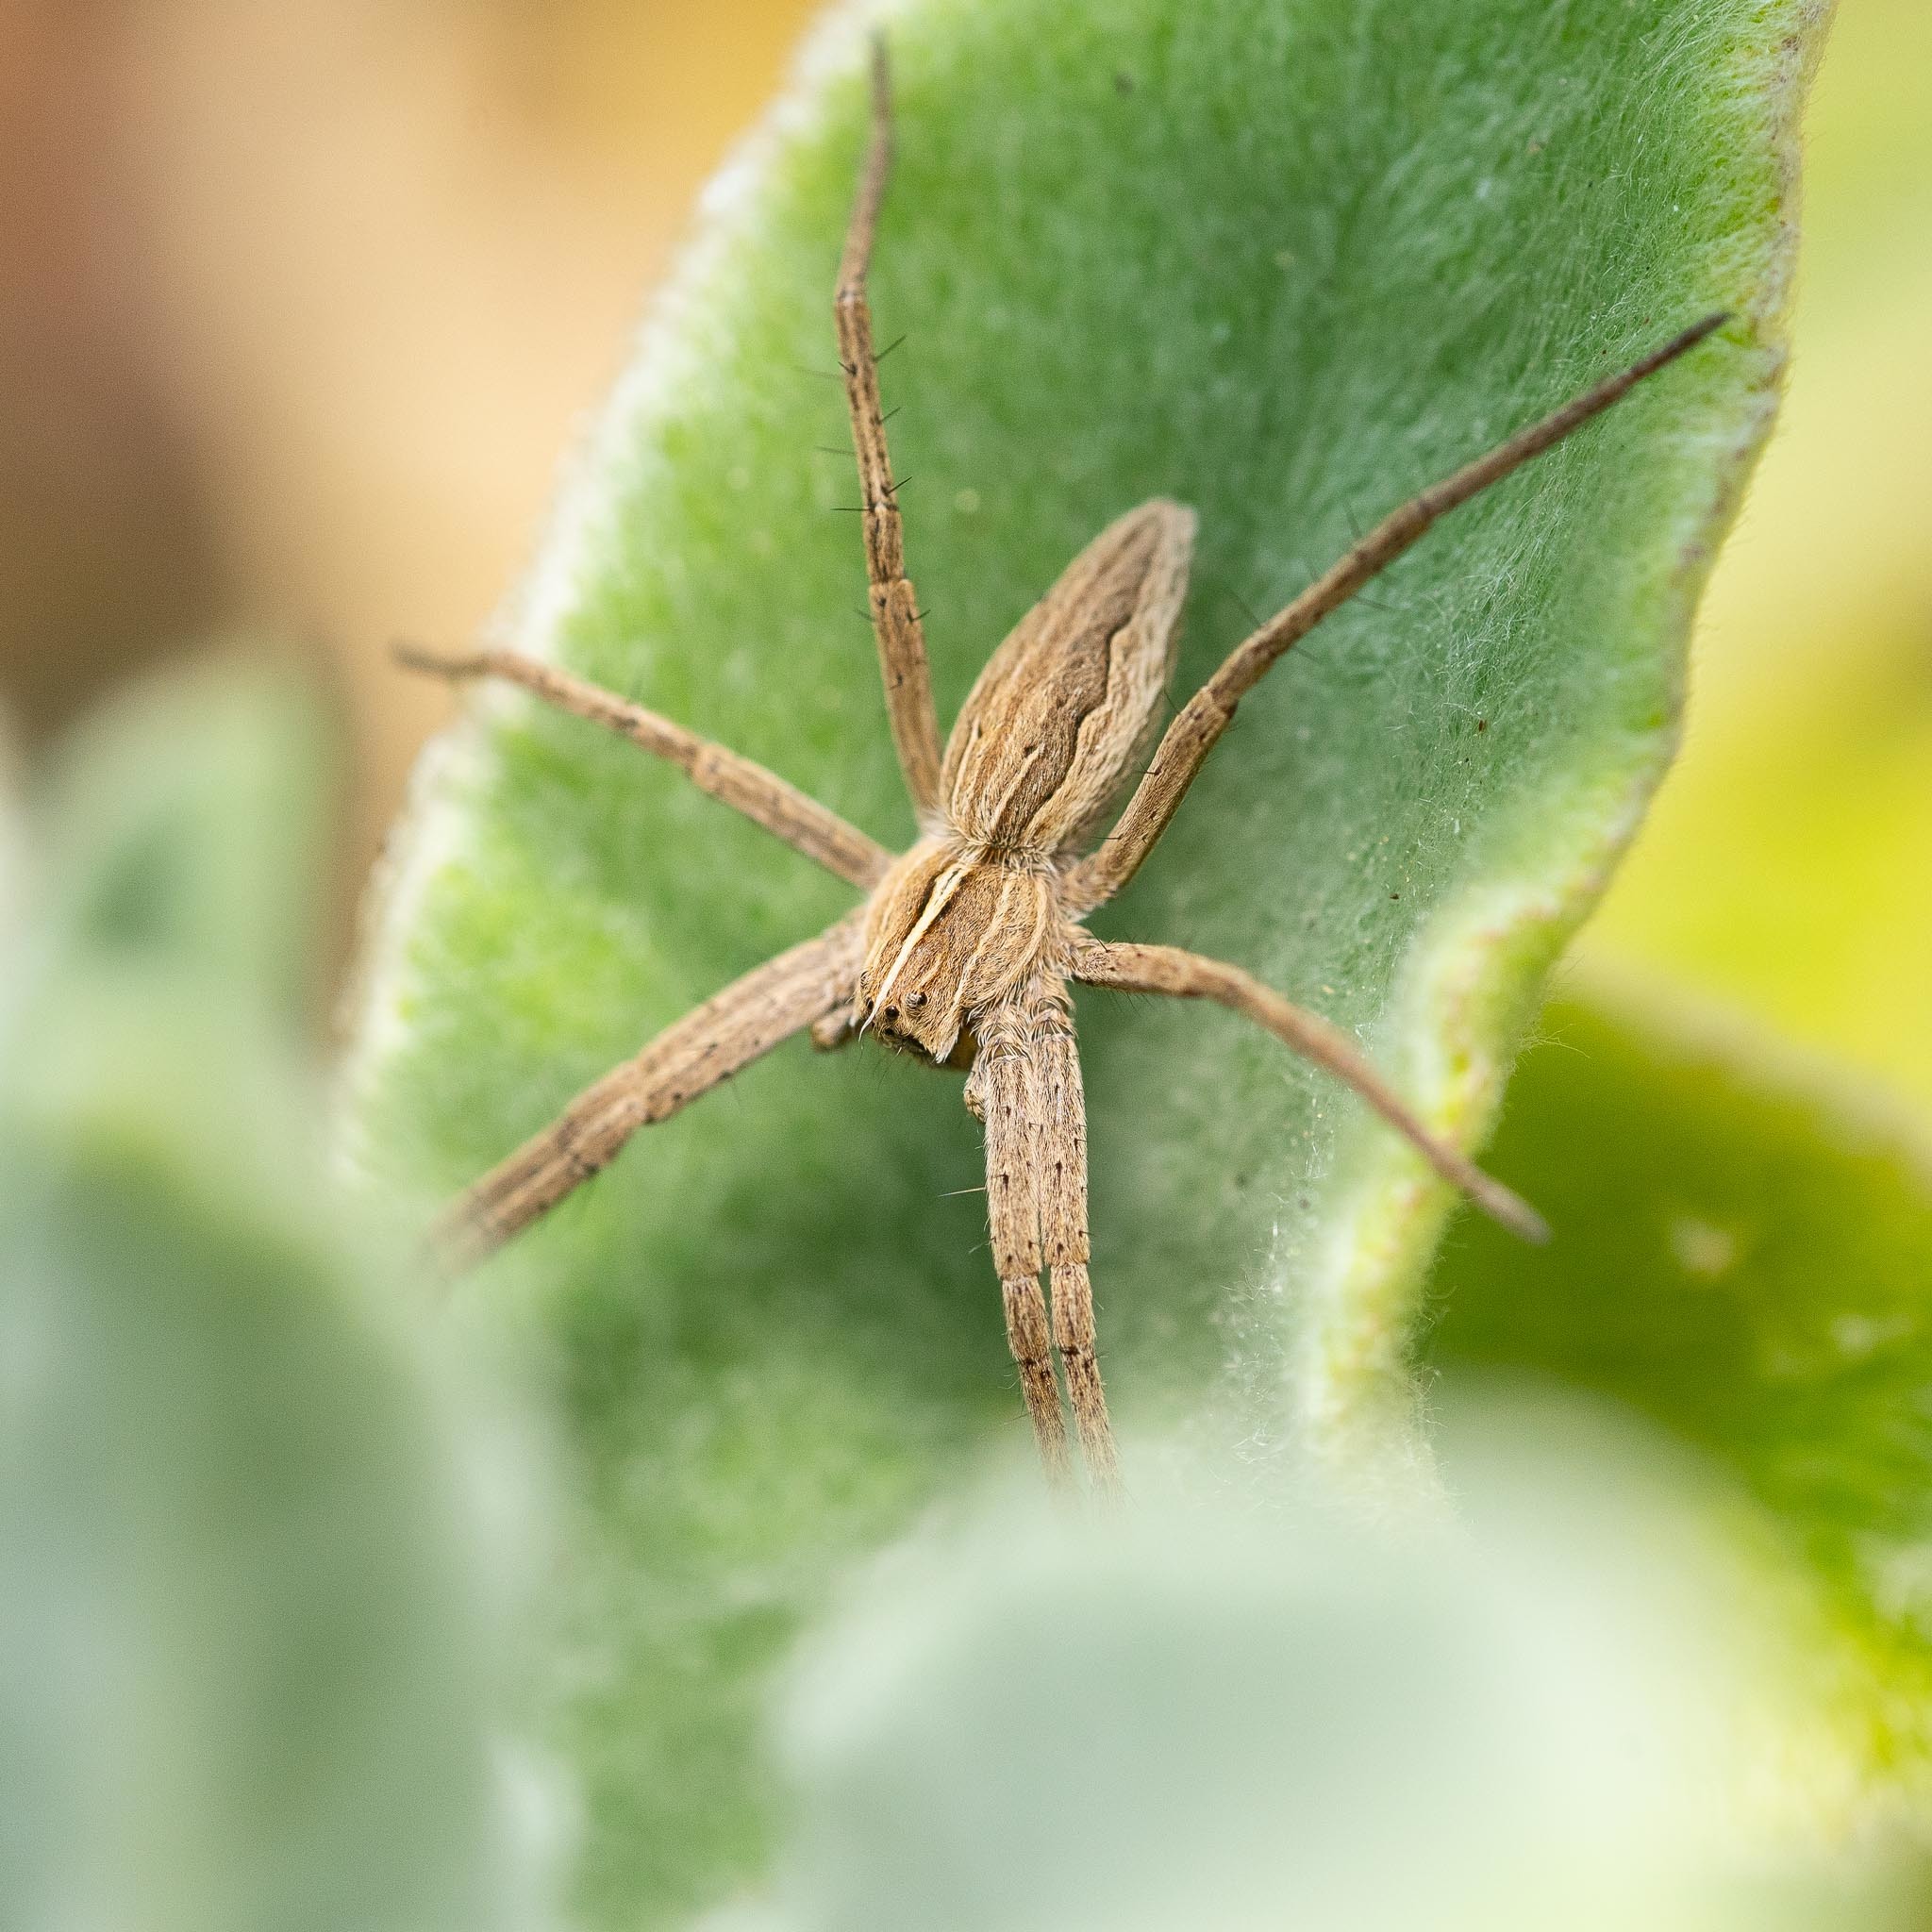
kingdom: Animalia
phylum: Arthropoda
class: Arachnida
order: Araneae
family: Pisauridae
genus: Pisaura
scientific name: Pisaura mirabilis
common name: Tent spider
